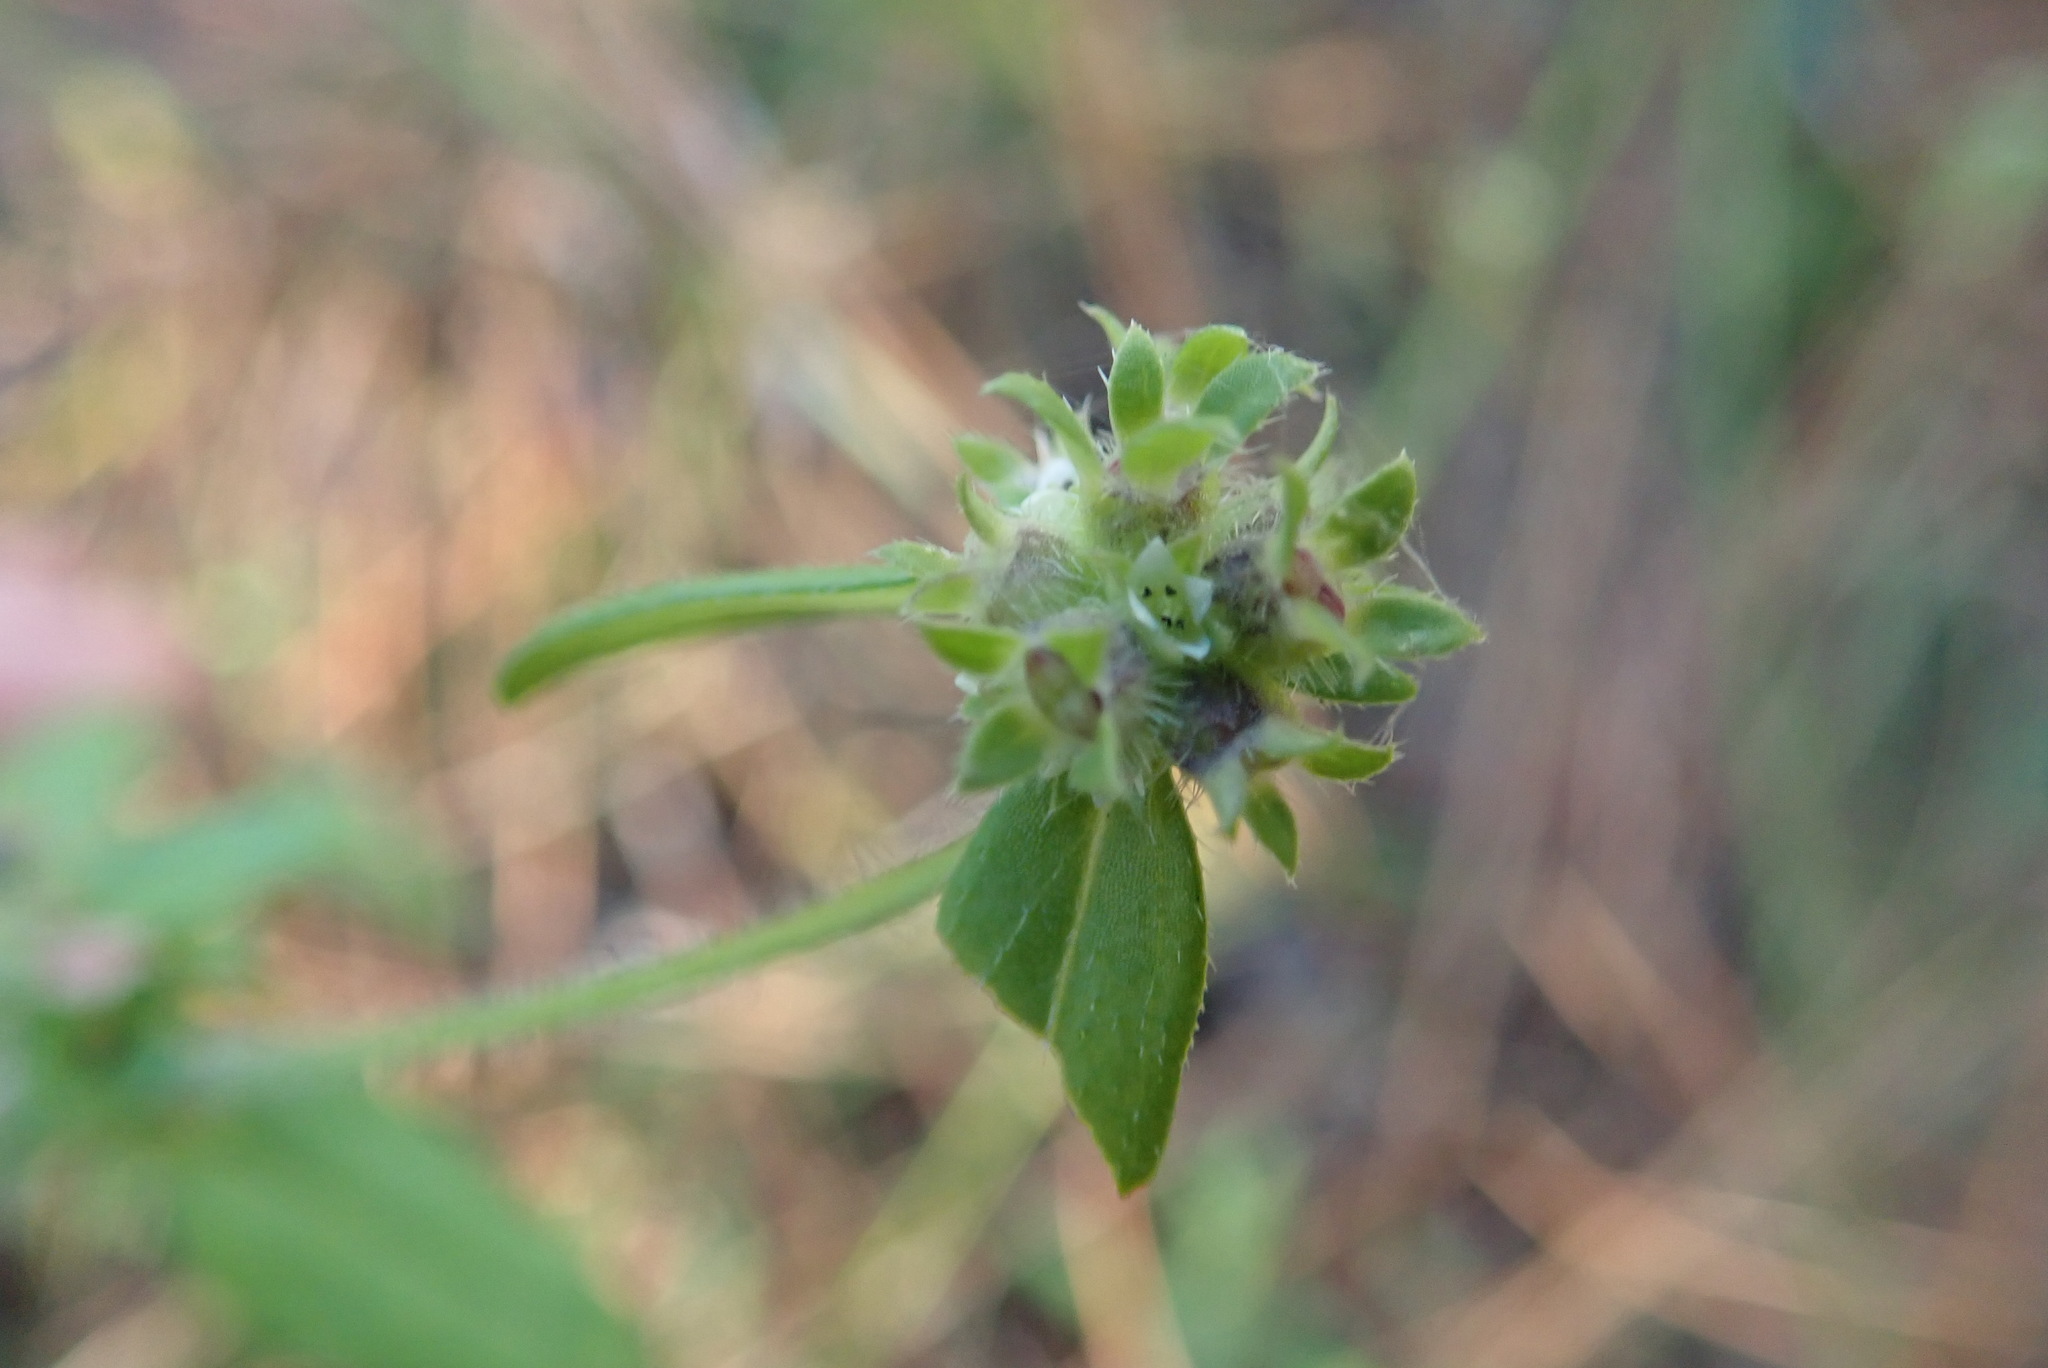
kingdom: Plantae
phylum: Tracheophyta
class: Magnoliopsida
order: Gentianales
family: Rubiaceae
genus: Edrastima
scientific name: Edrastima uniflora
